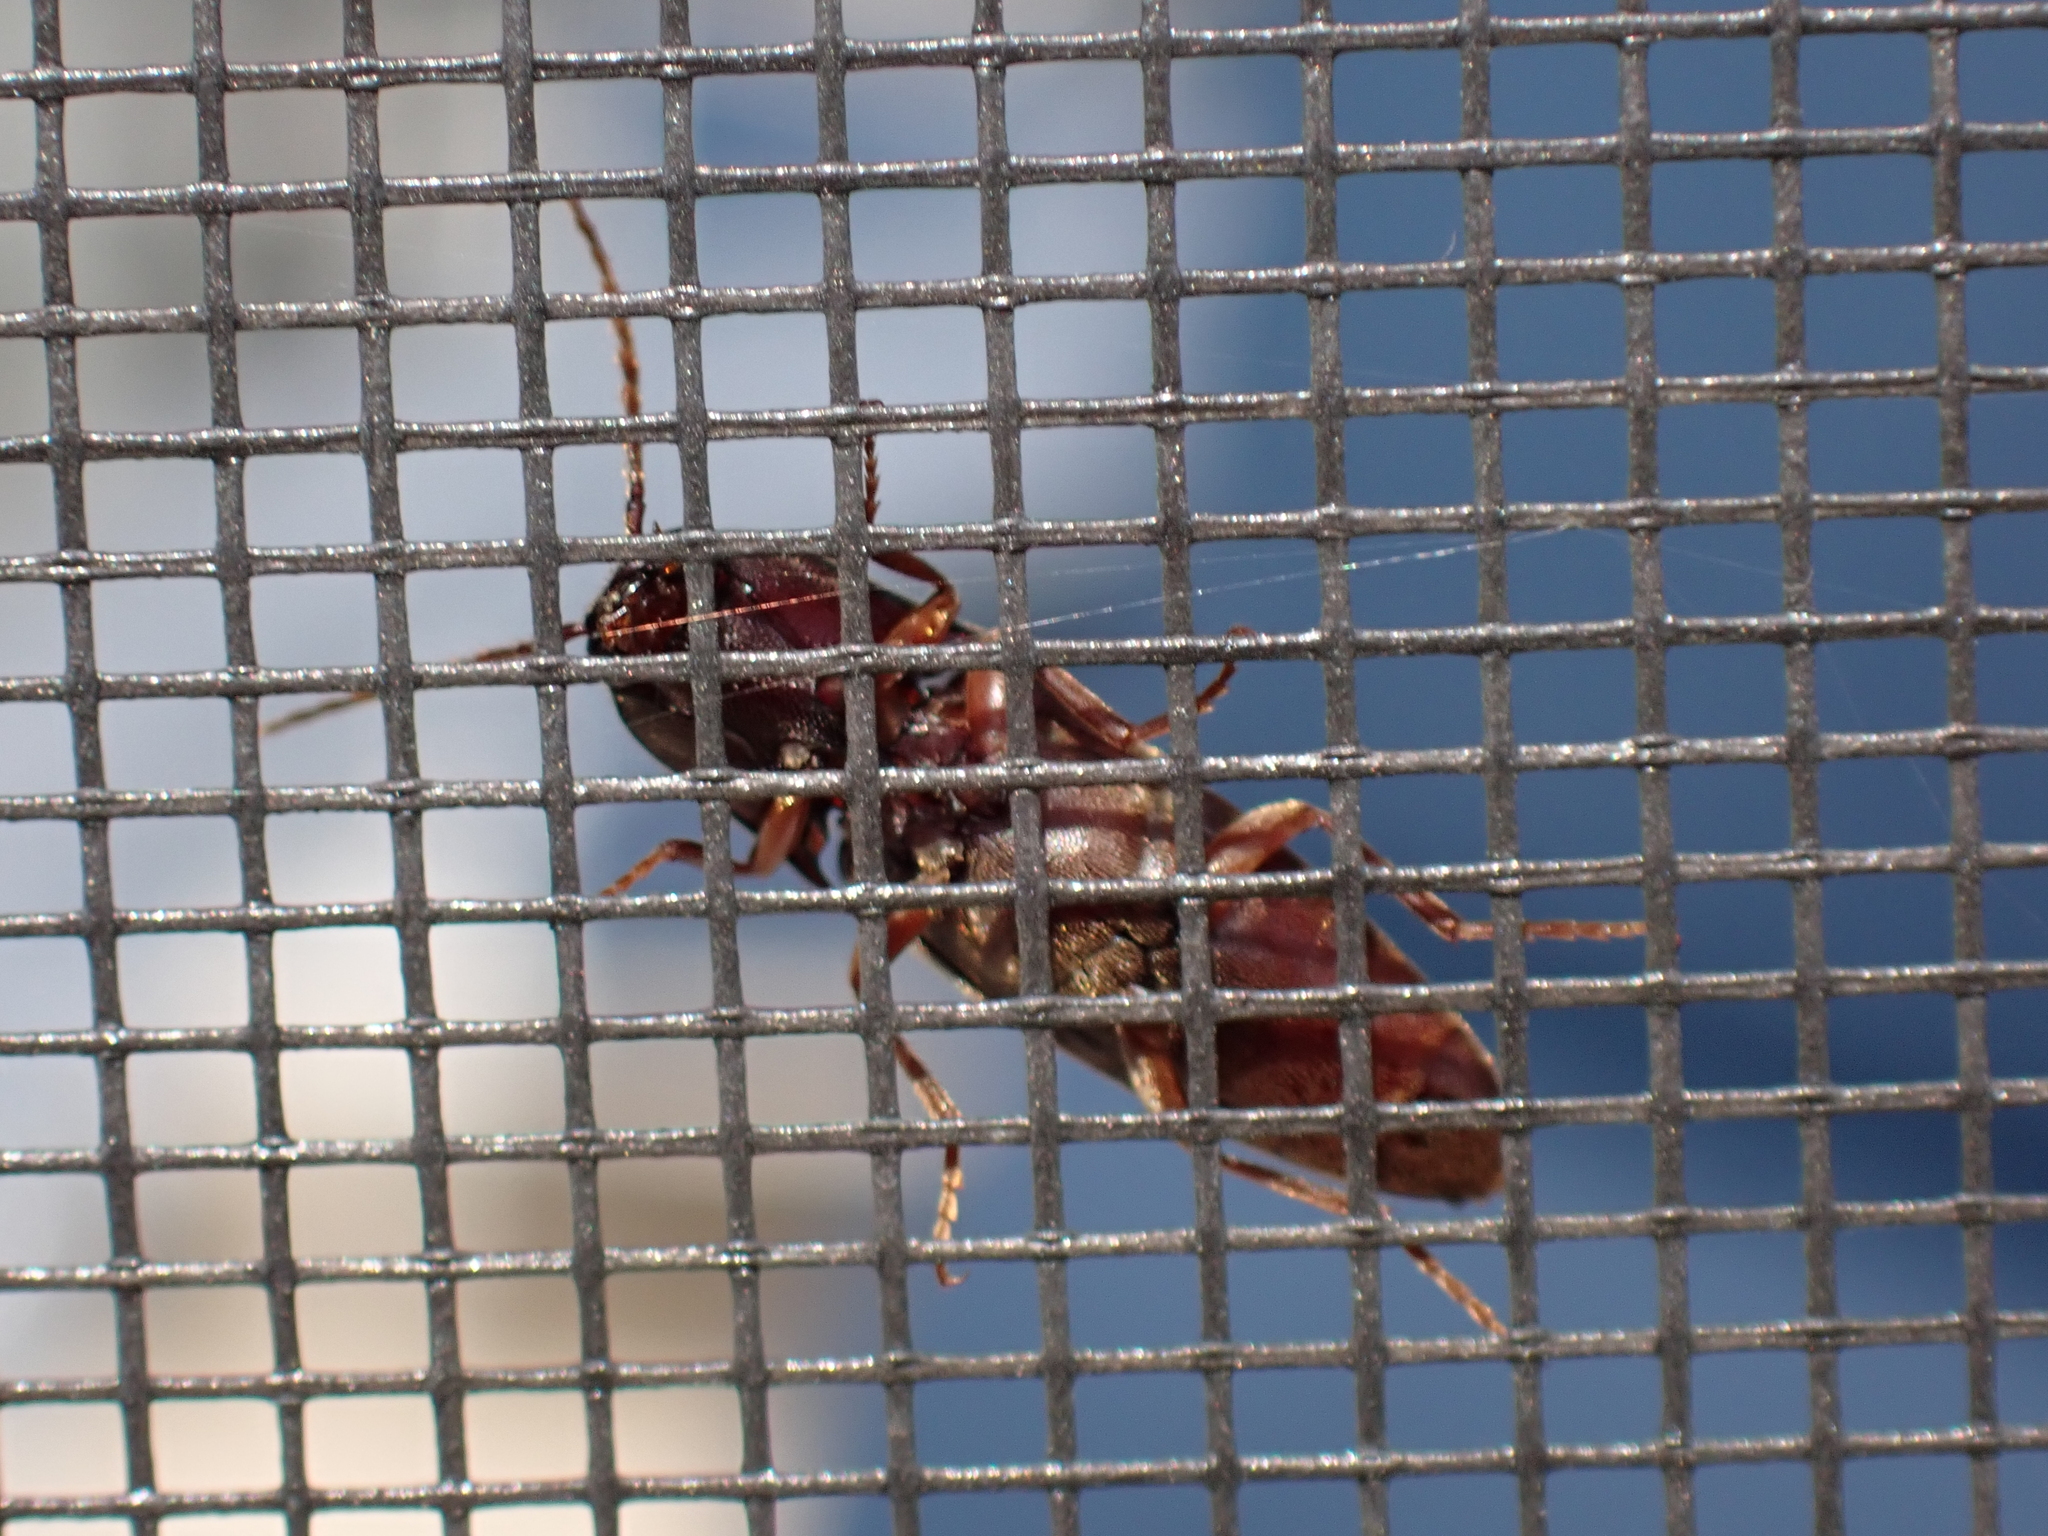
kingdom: Animalia
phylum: Arthropoda
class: Insecta
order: Coleoptera
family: Elateridae
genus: Diplostethus
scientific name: Diplostethus
